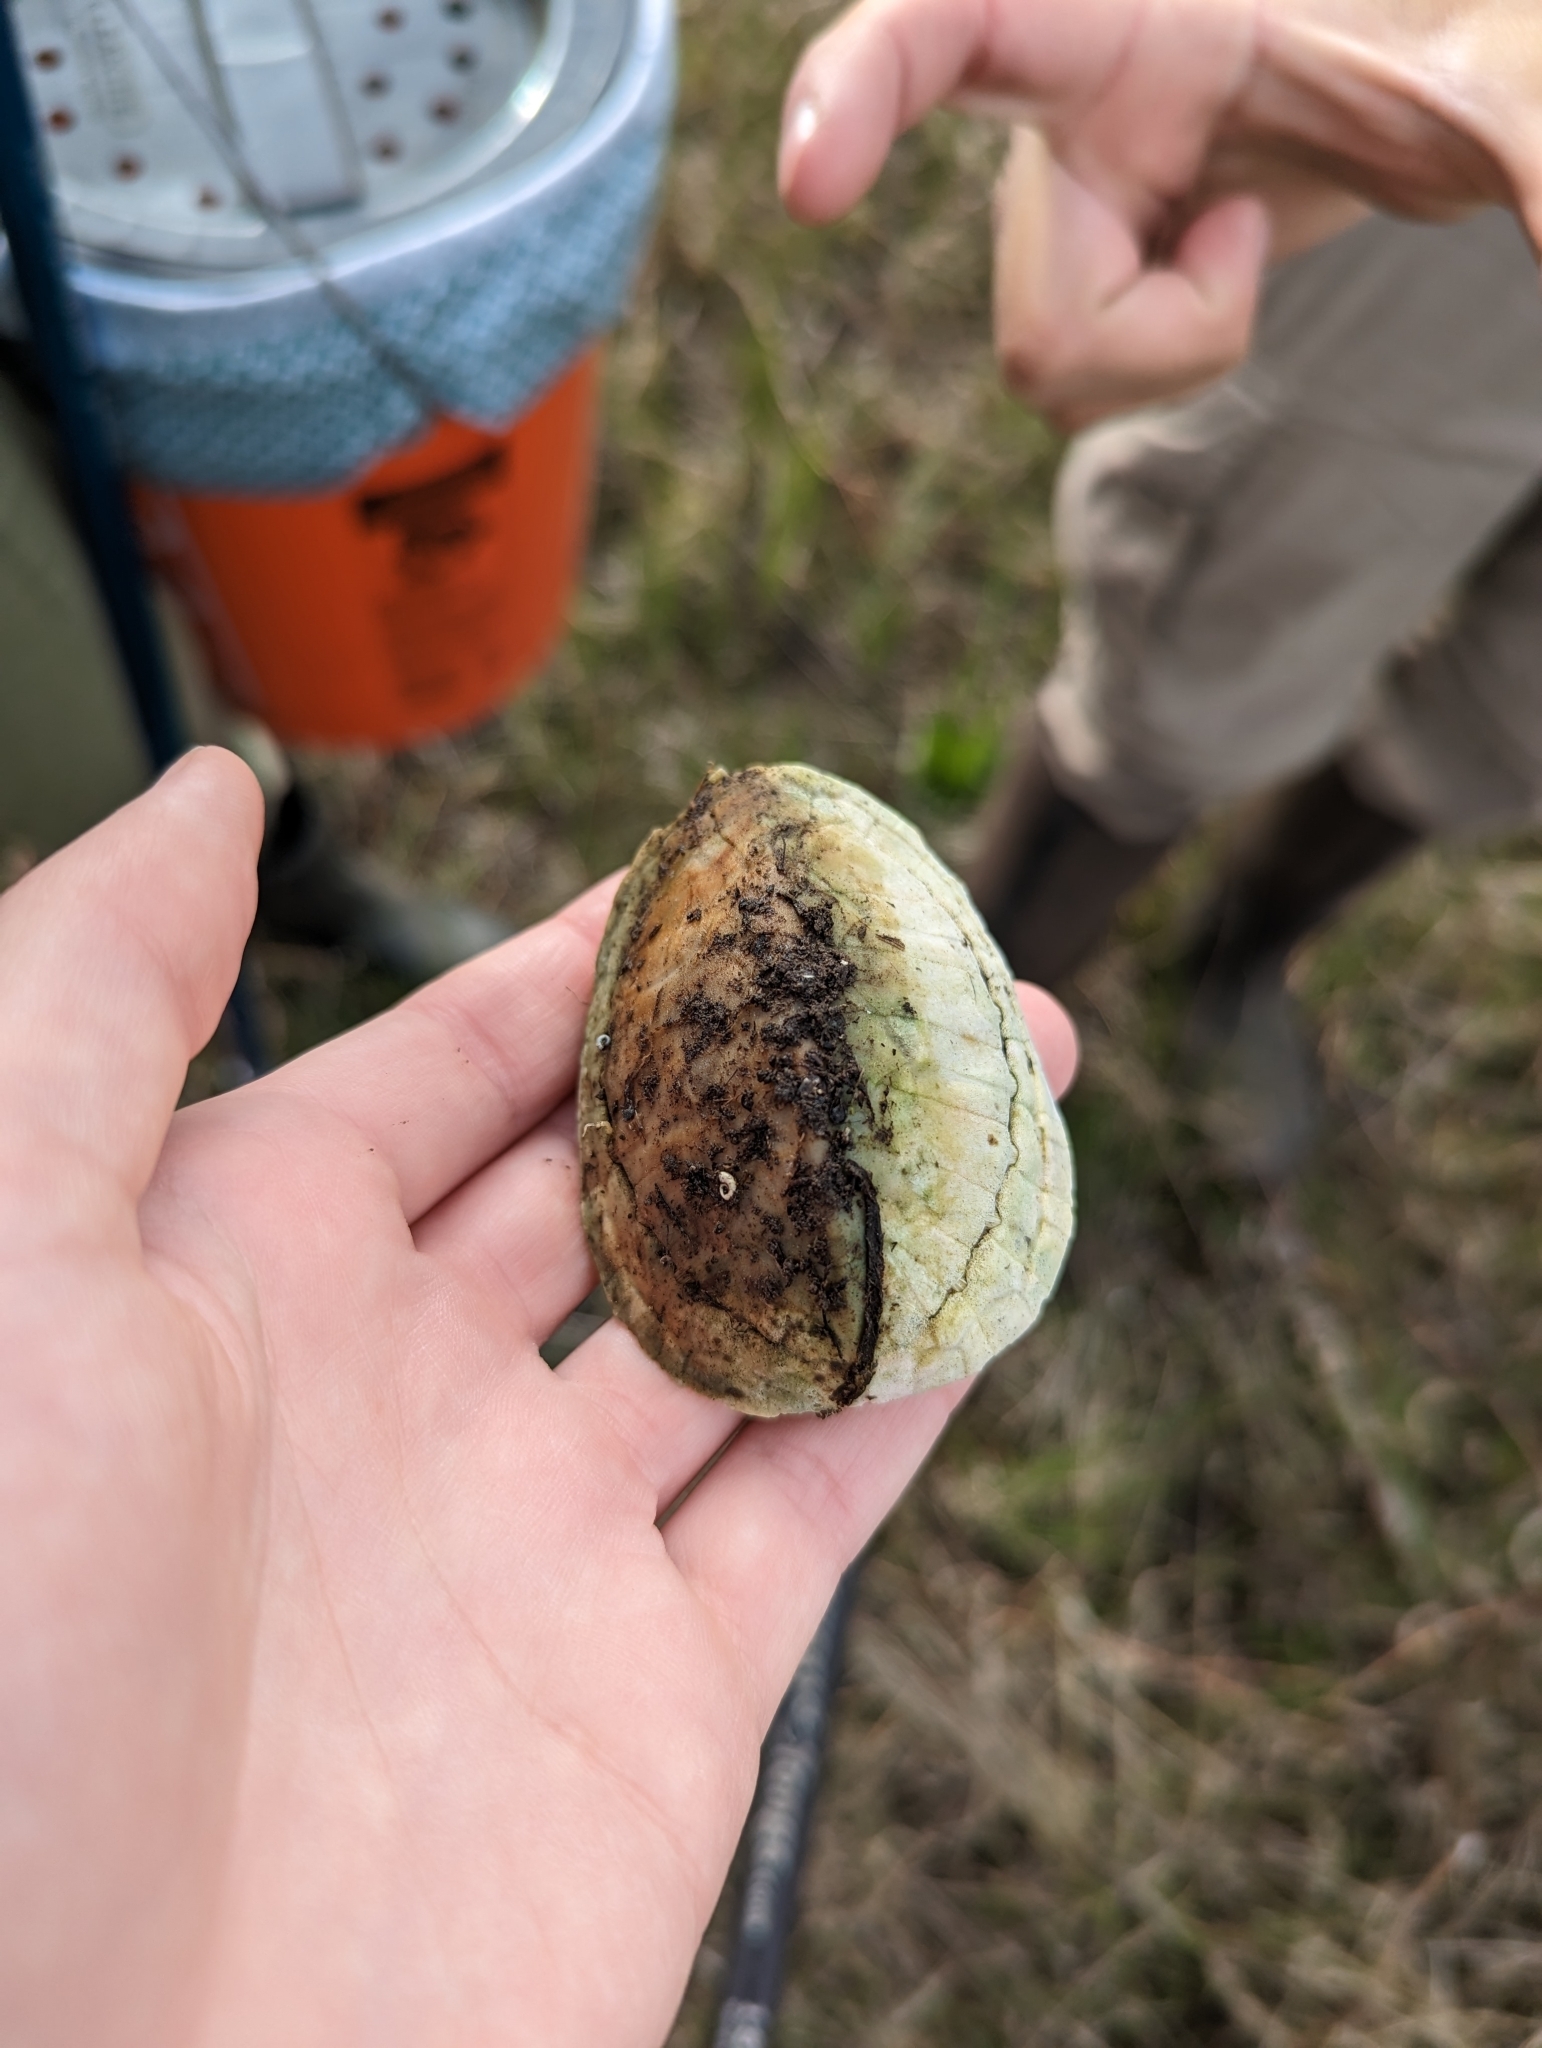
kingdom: Animalia
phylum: Chordata
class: Testudines
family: Kinosternidae
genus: Sternotherus
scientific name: Sternotherus odoratus
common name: Common musk turtle
